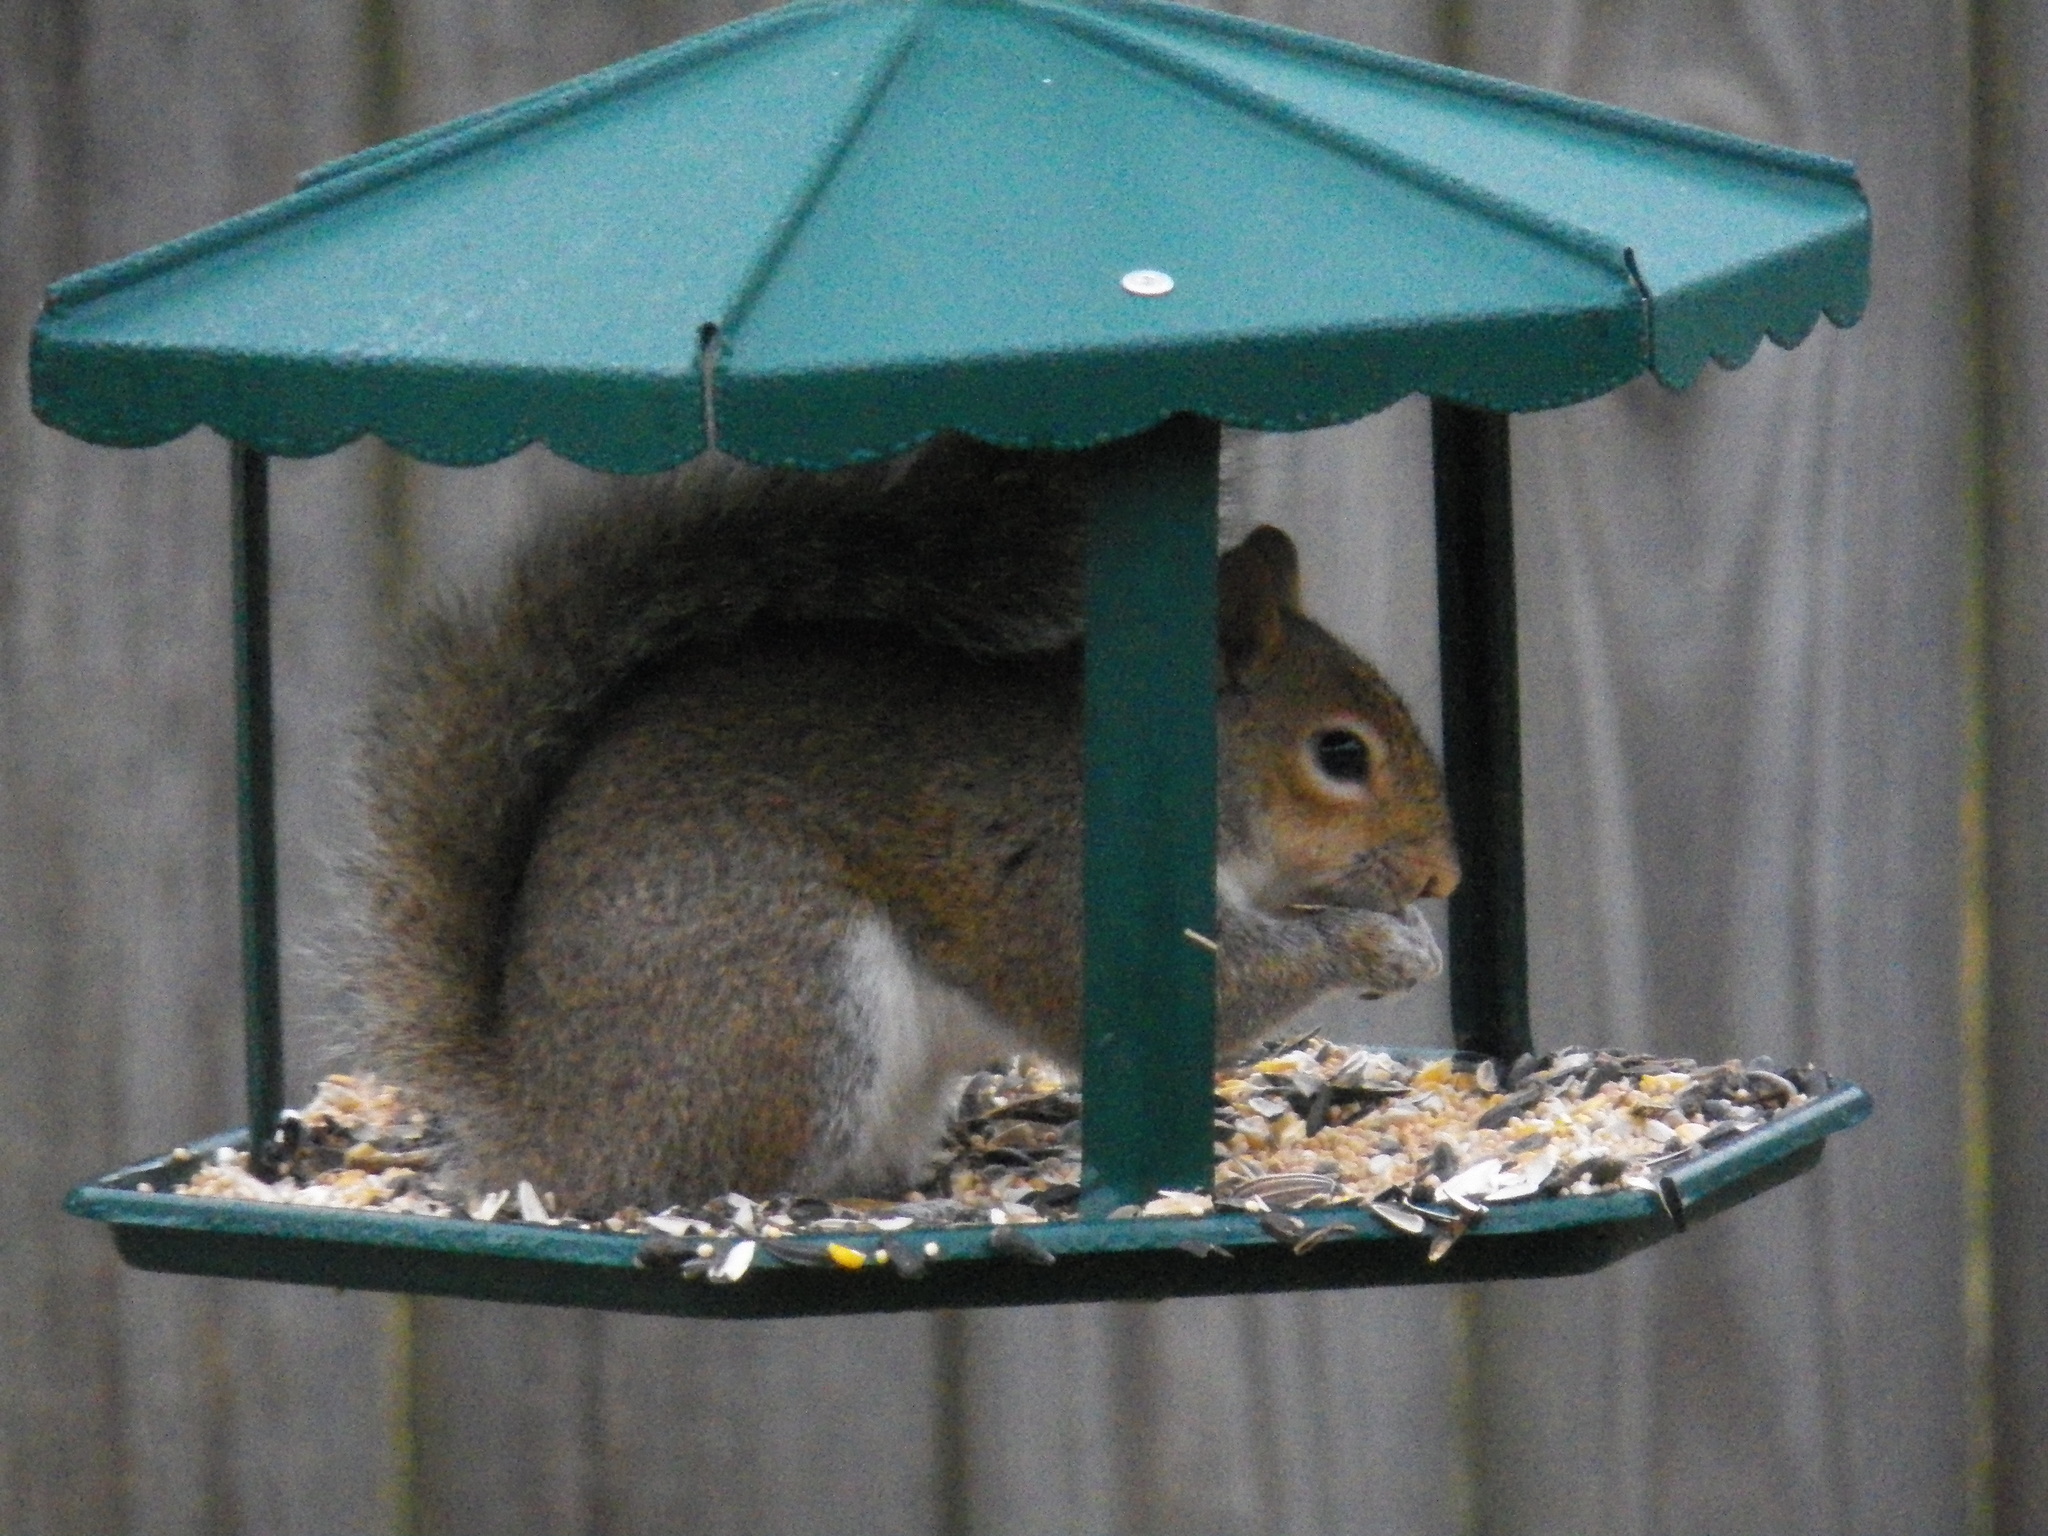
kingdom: Animalia
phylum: Chordata
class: Mammalia
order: Rodentia
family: Sciuridae
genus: Sciurus
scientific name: Sciurus carolinensis
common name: Eastern gray squirrel
